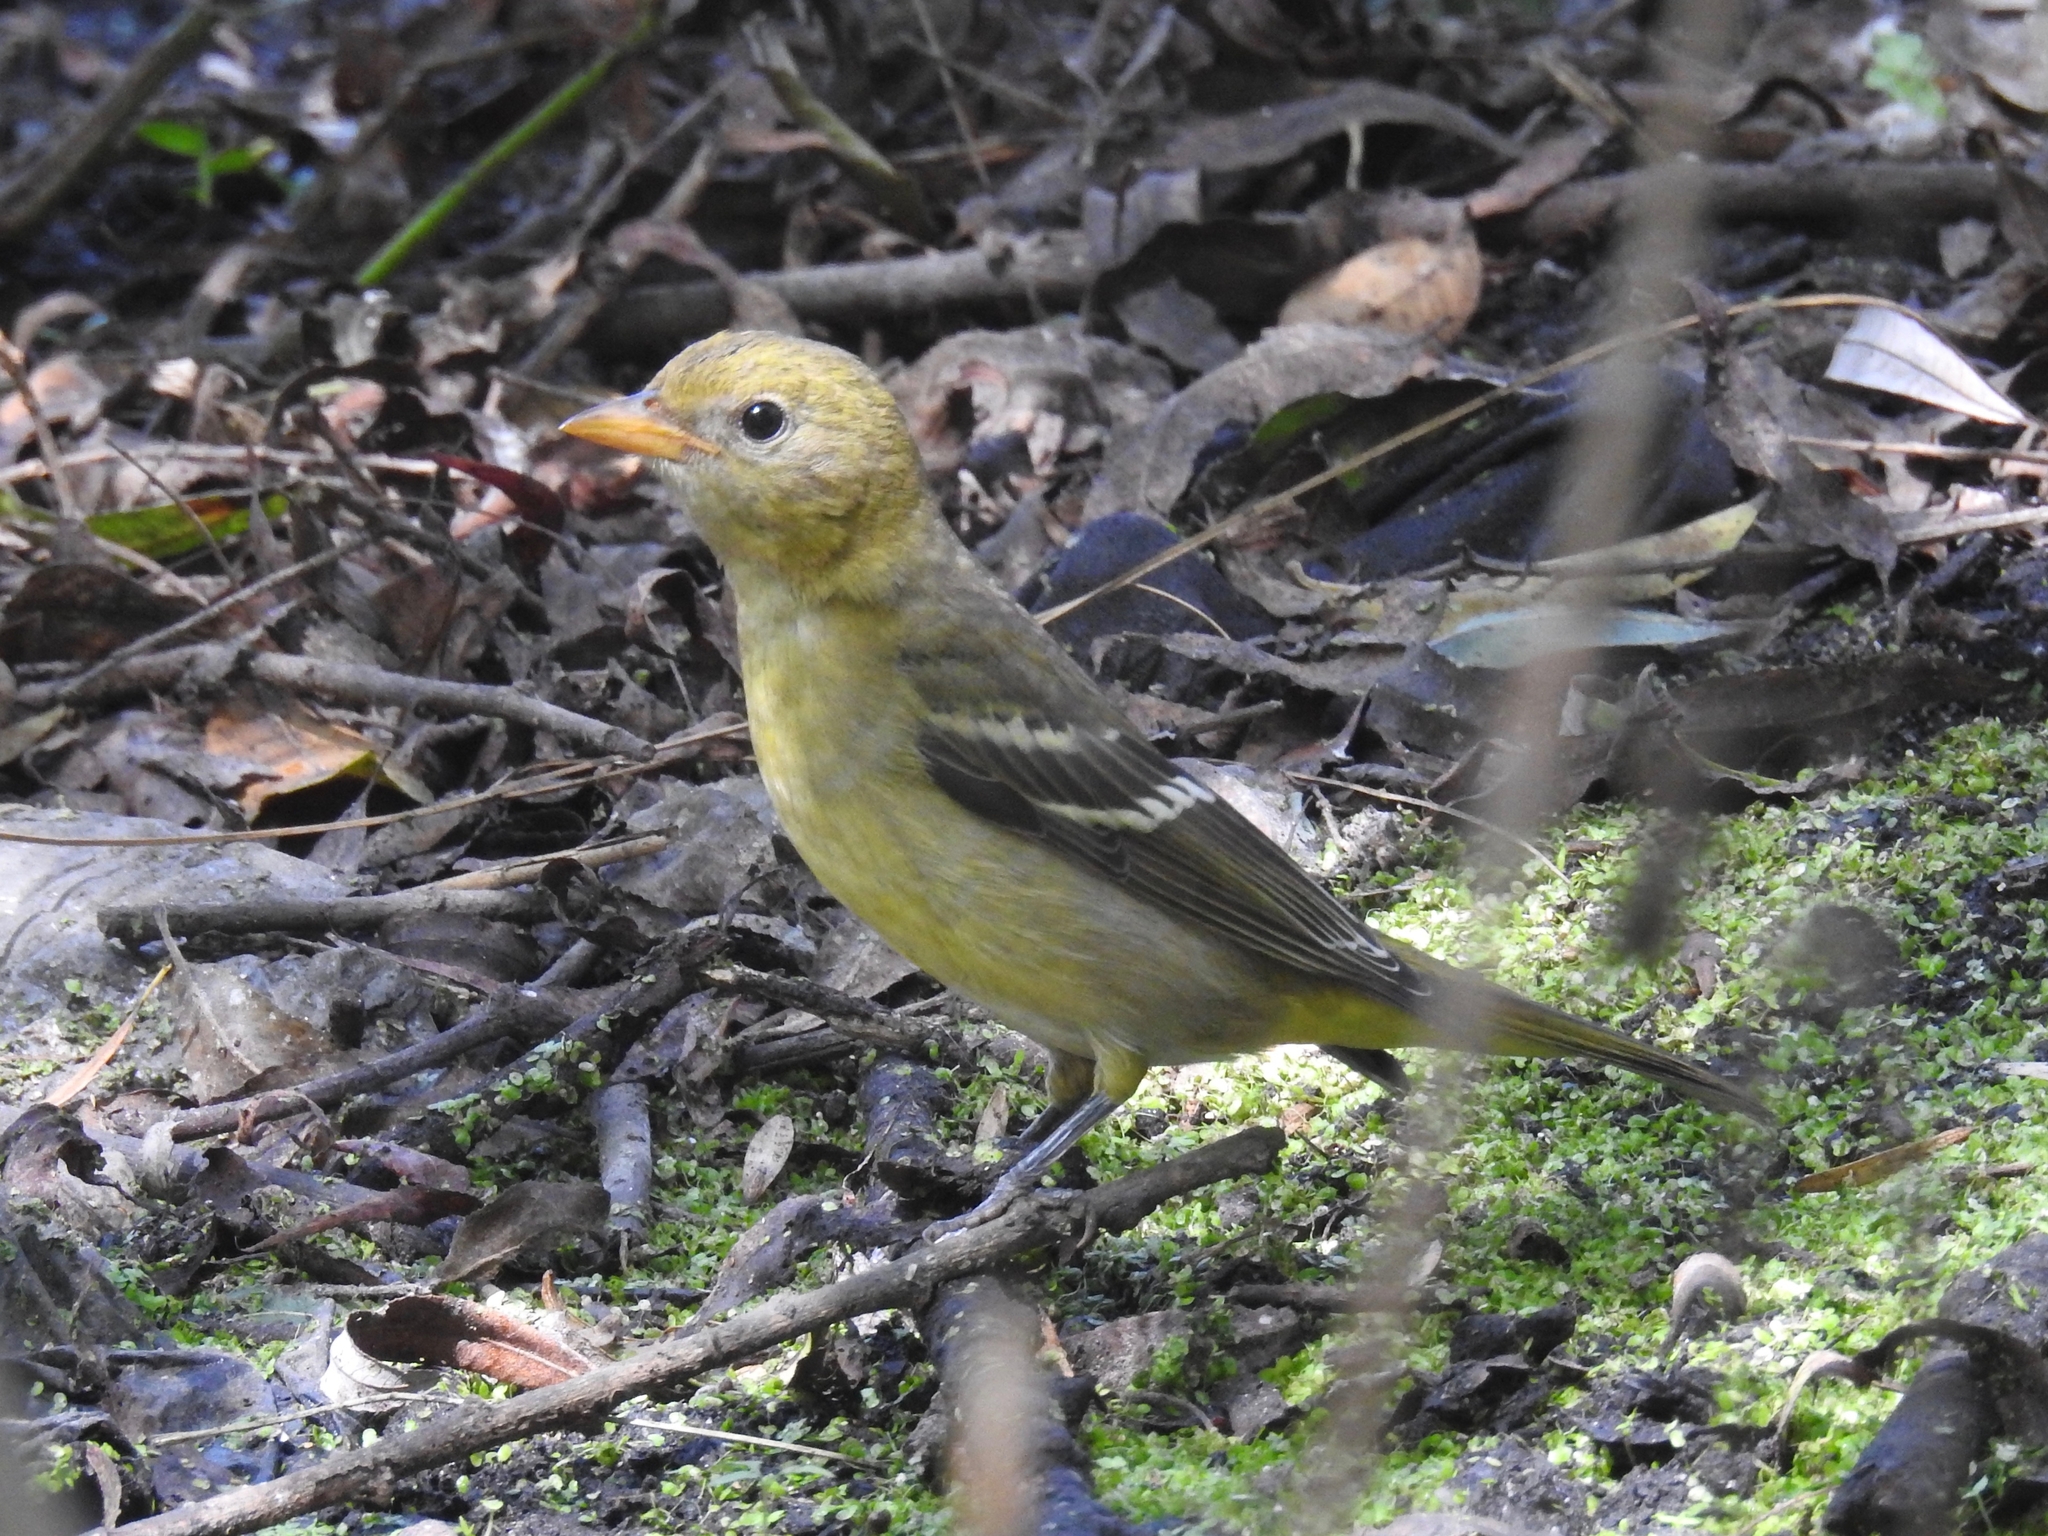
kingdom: Animalia
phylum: Chordata
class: Aves
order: Passeriformes
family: Cardinalidae
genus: Piranga
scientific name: Piranga ludoviciana
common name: Western tanager
